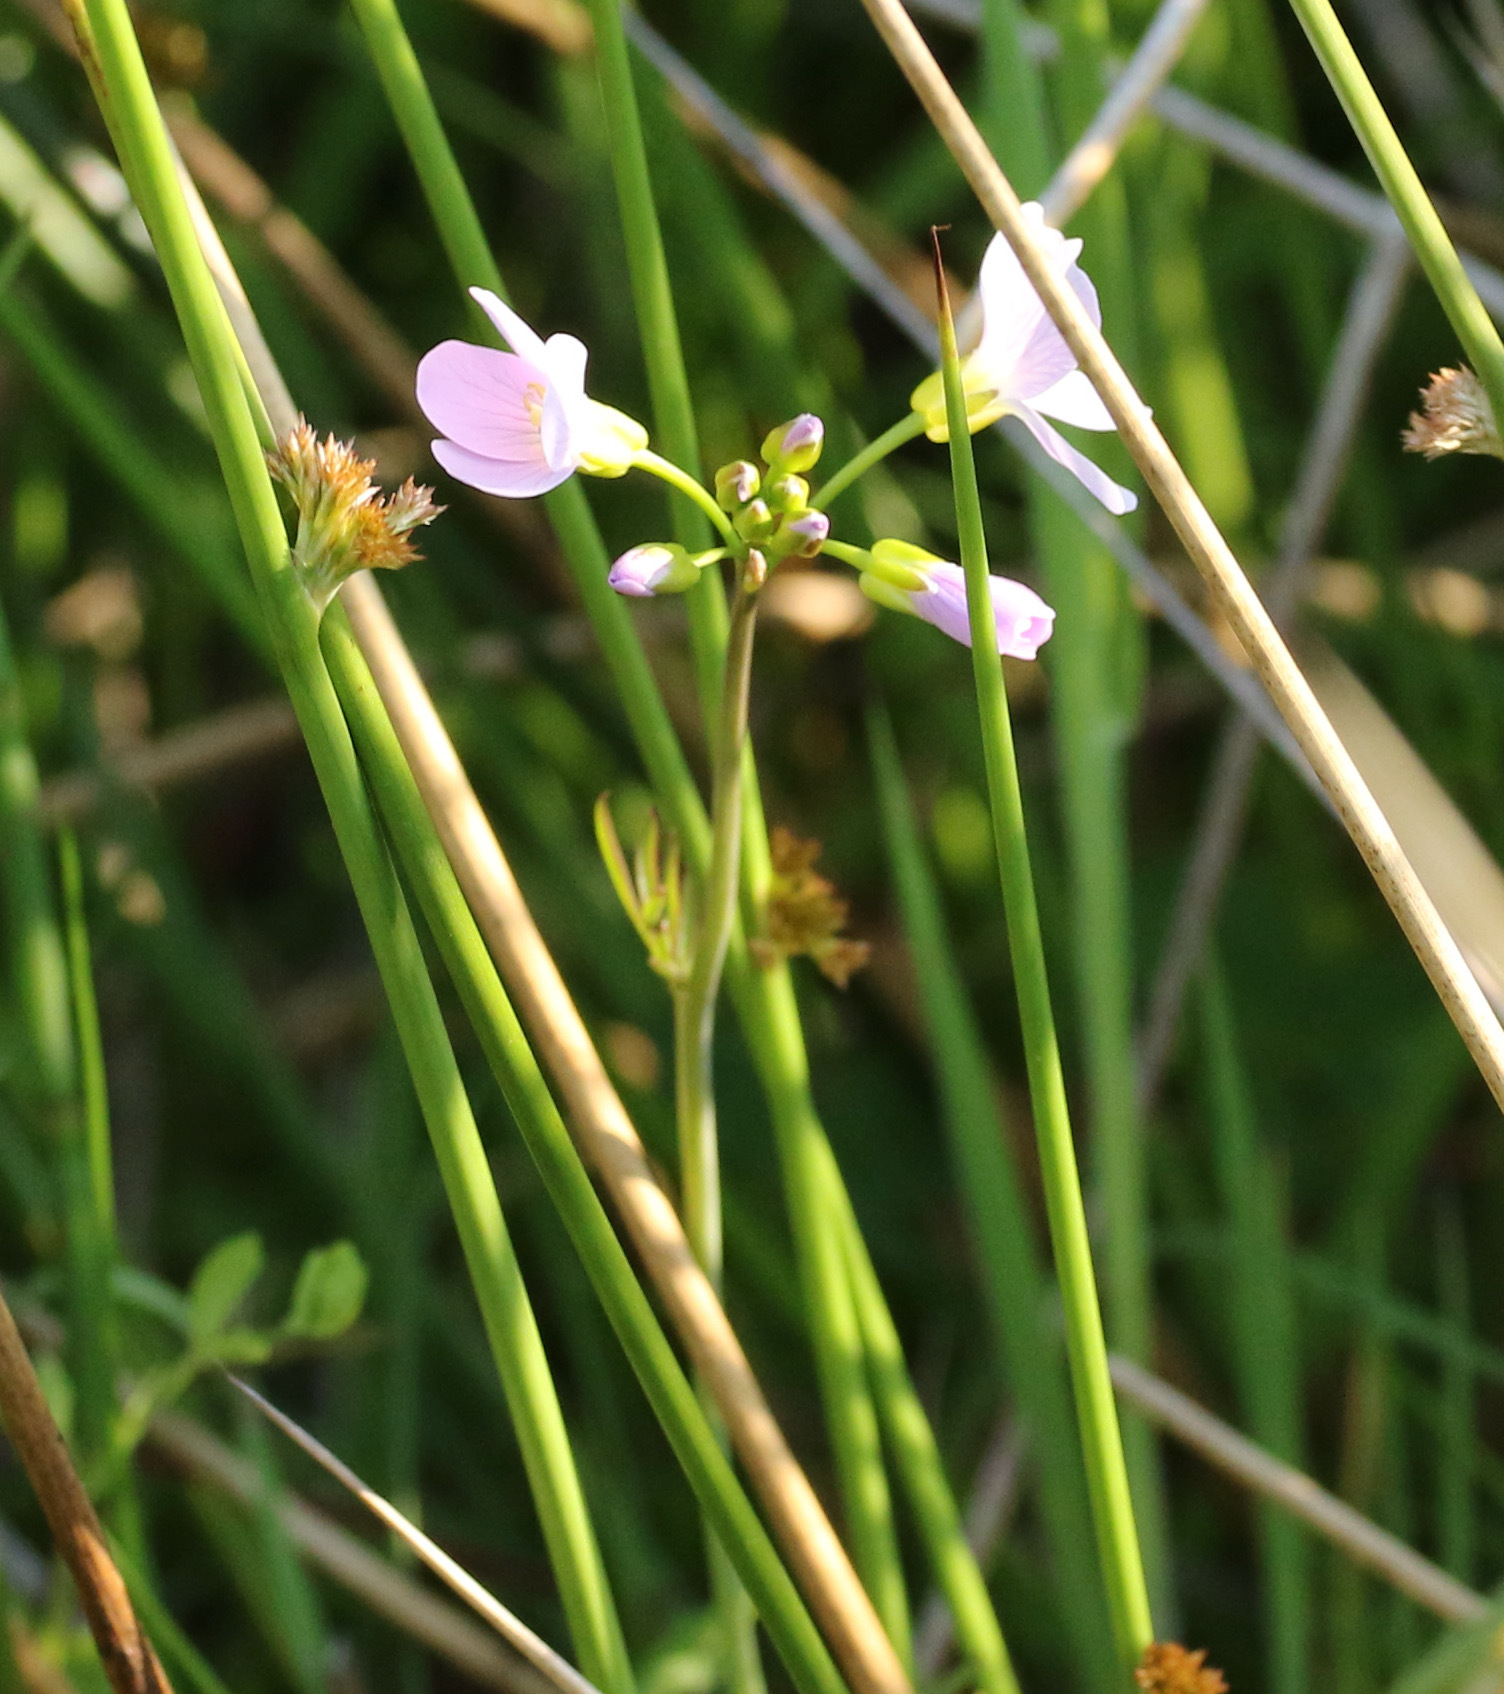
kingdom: Plantae
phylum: Tracheophyta
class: Magnoliopsida
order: Brassicales
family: Brassicaceae
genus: Cardamine
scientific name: Cardamine pratensis
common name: Cuckoo flower
